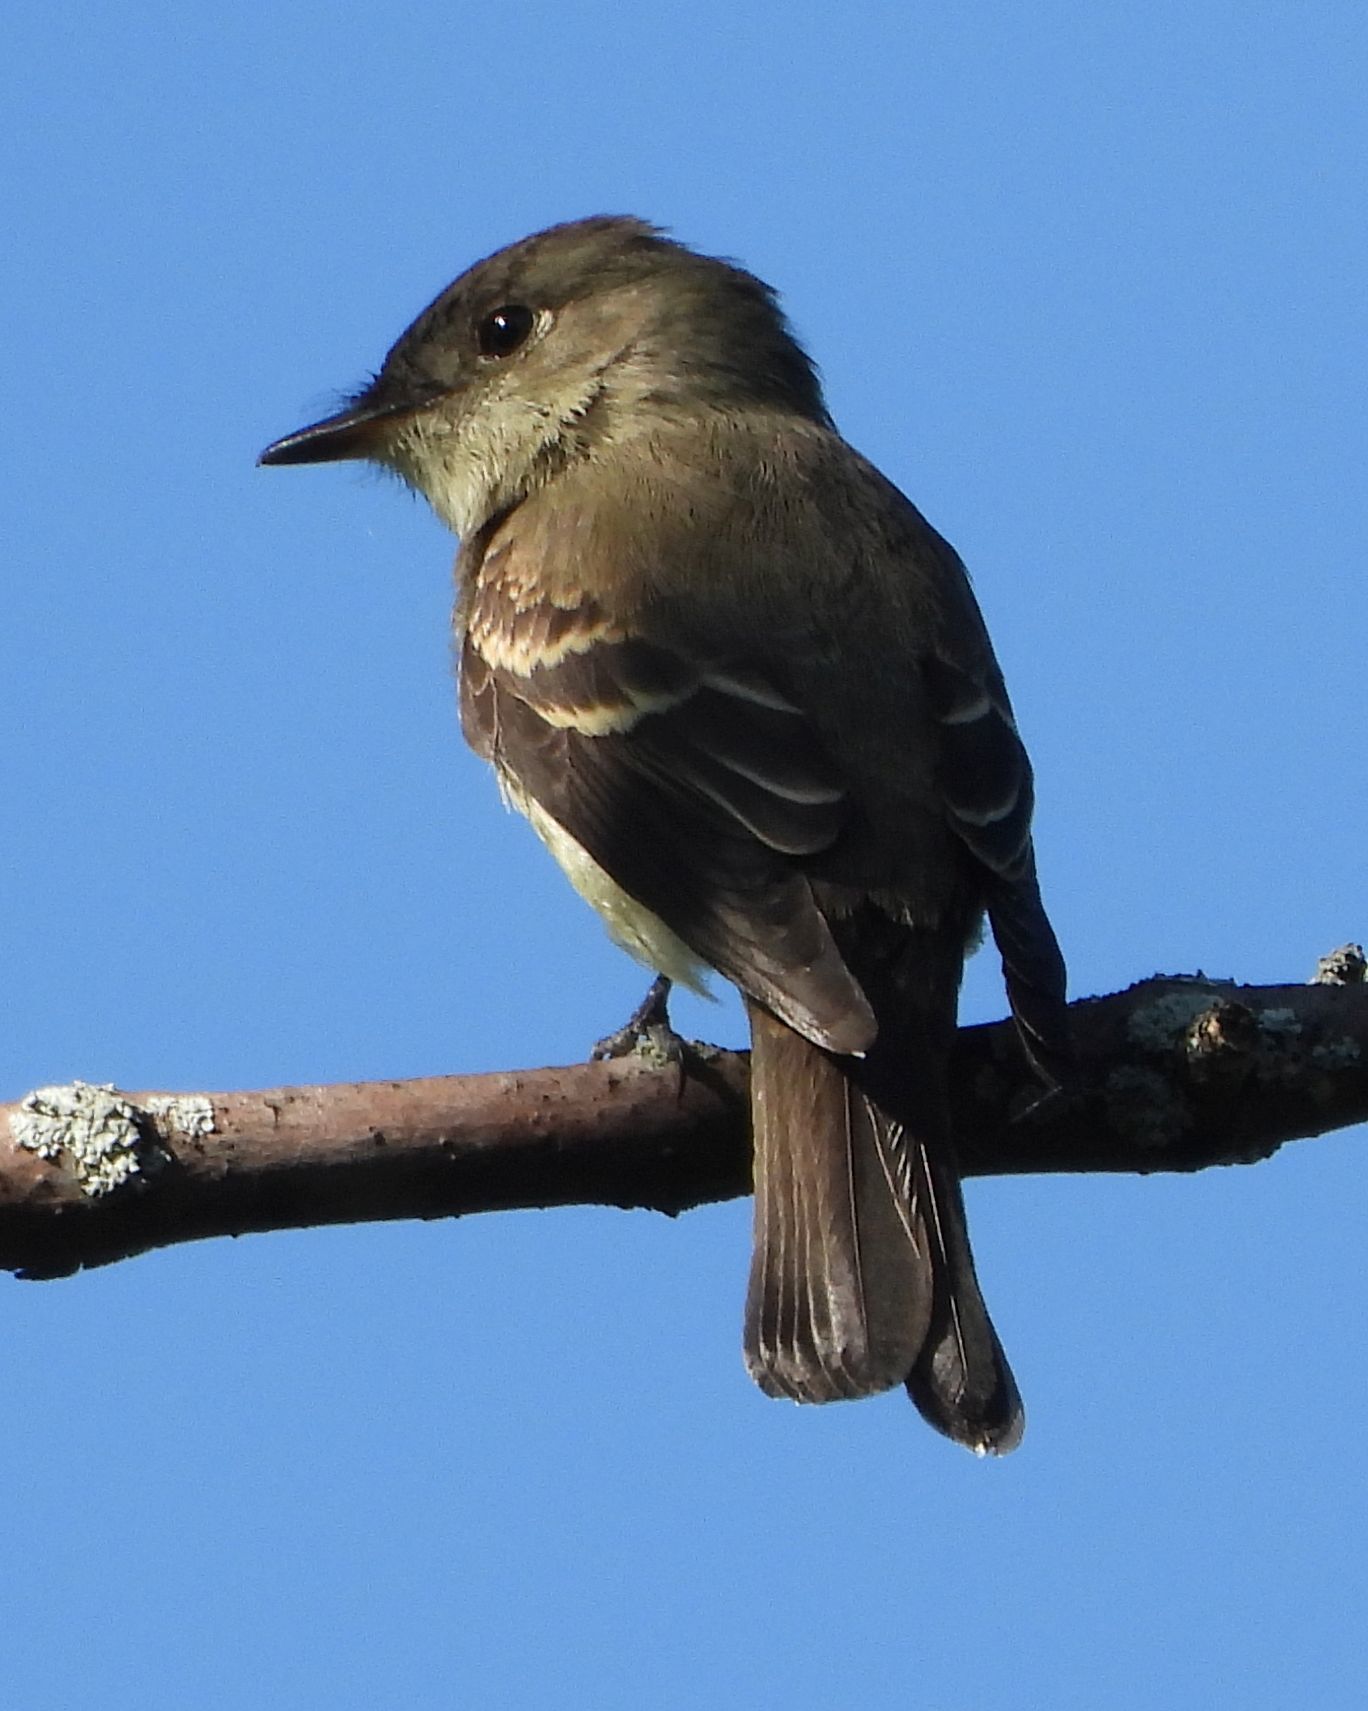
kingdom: Animalia
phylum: Chordata
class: Aves
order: Passeriformes
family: Tyrannidae
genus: Contopus
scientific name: Contopus virens
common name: Eastern wood-pewee
